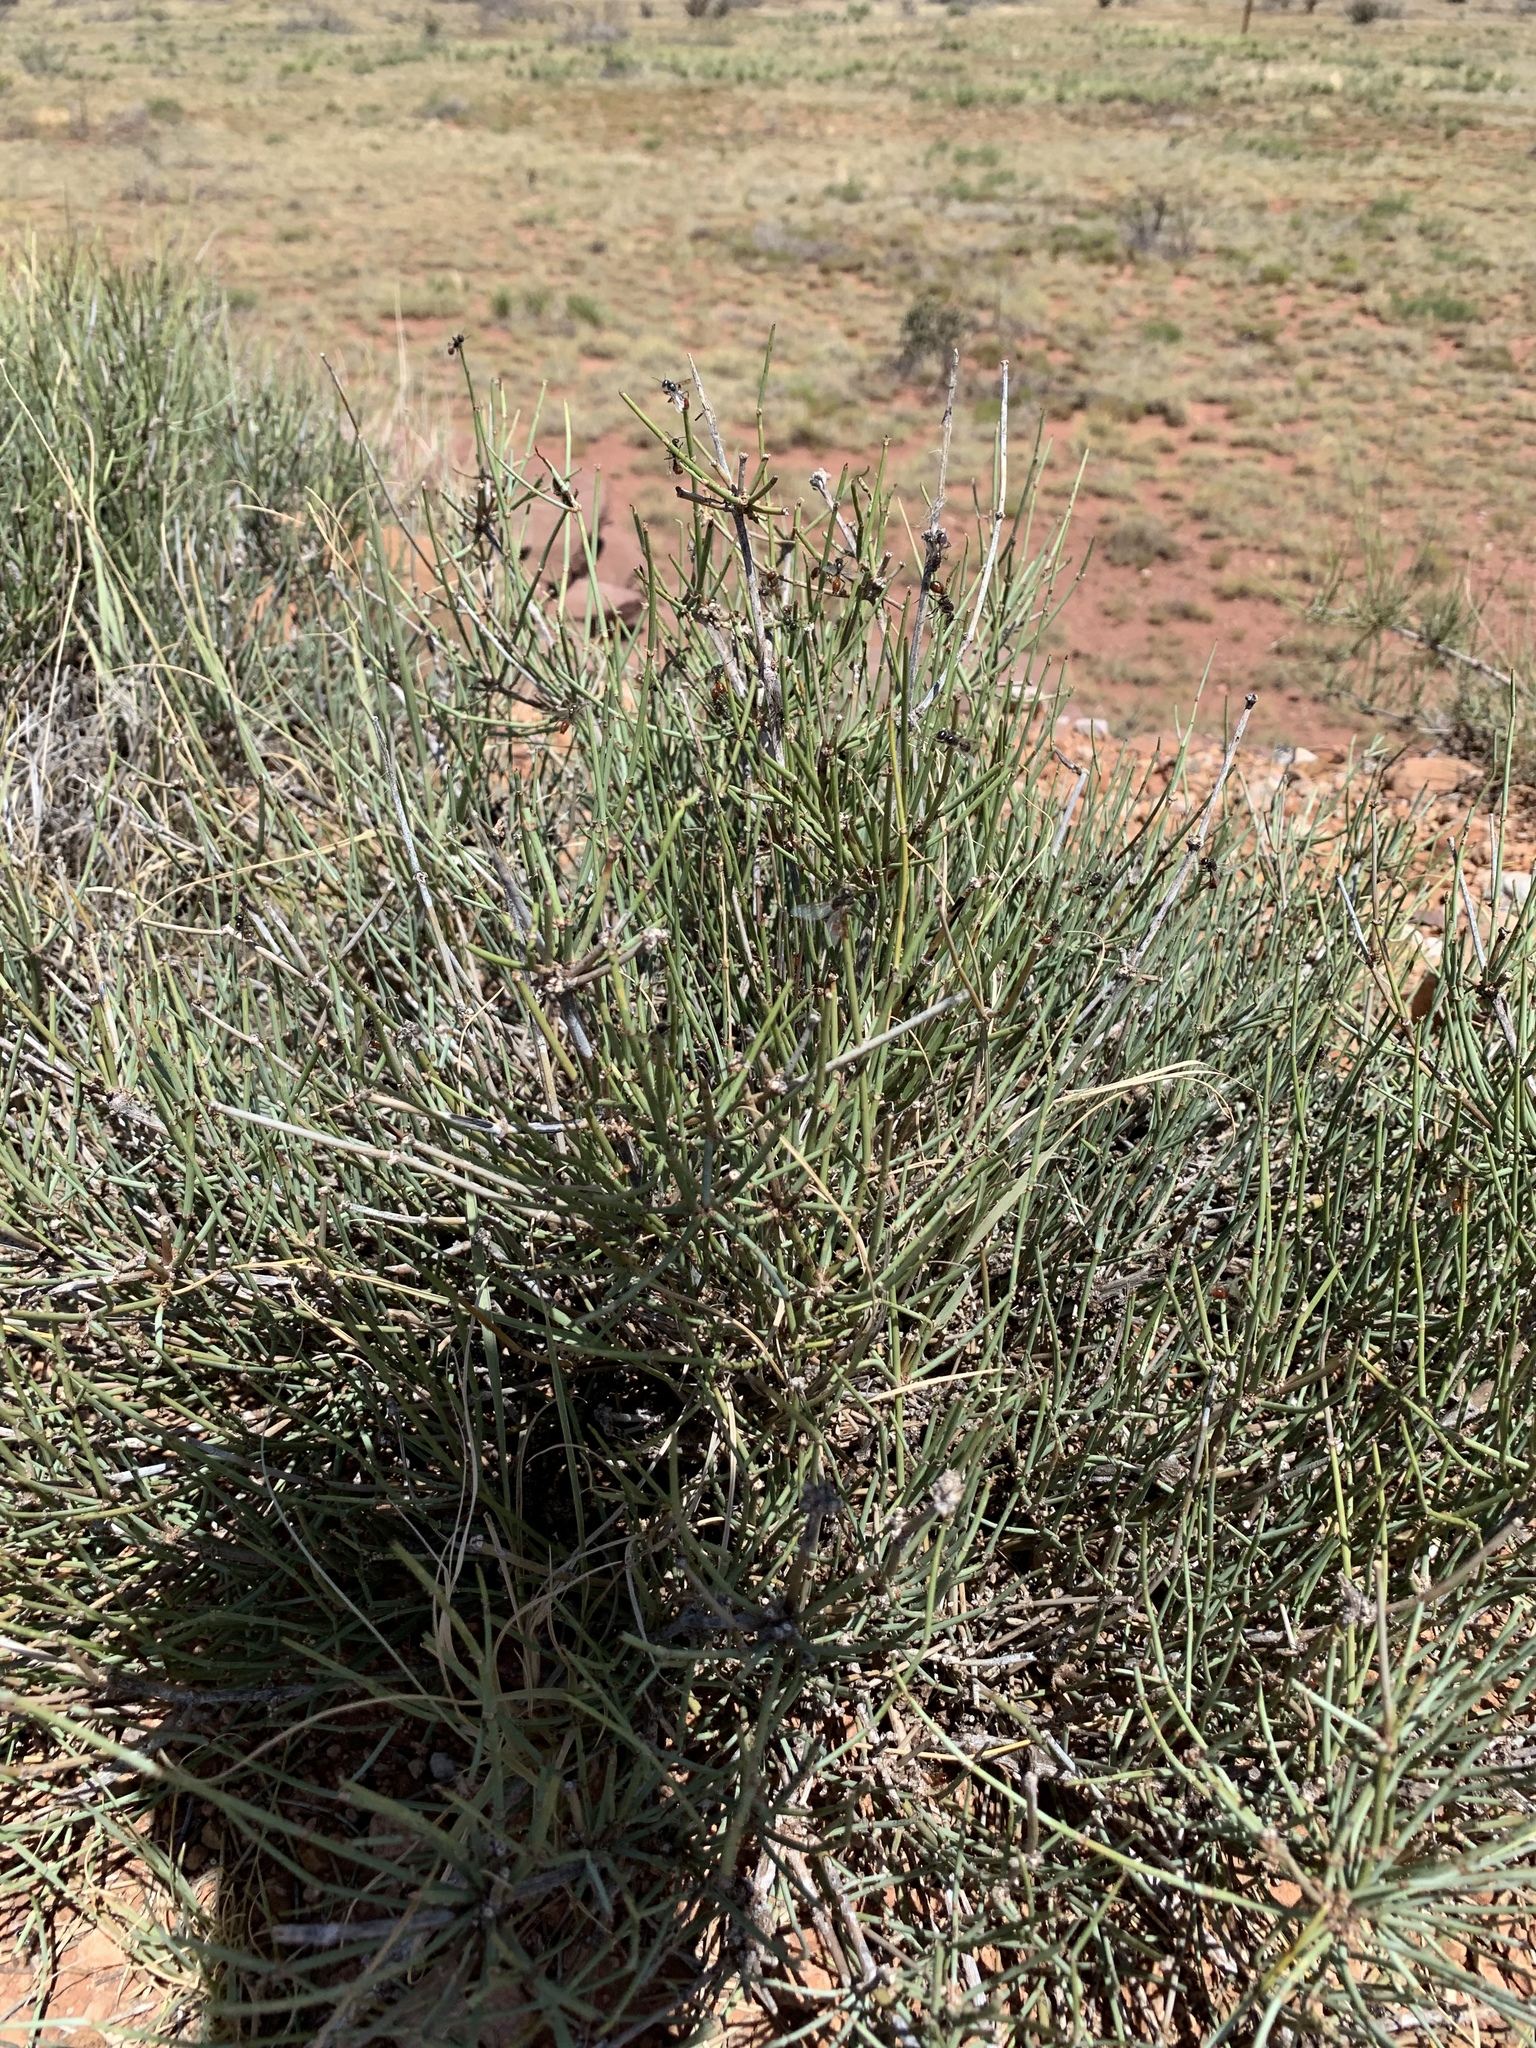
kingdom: Plantae
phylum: Tracheophyta
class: Gnetopsida
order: Ephedrales
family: Ephedraceae
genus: Ephedra
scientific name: Ephedra torreyana
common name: Torrey ephedra
